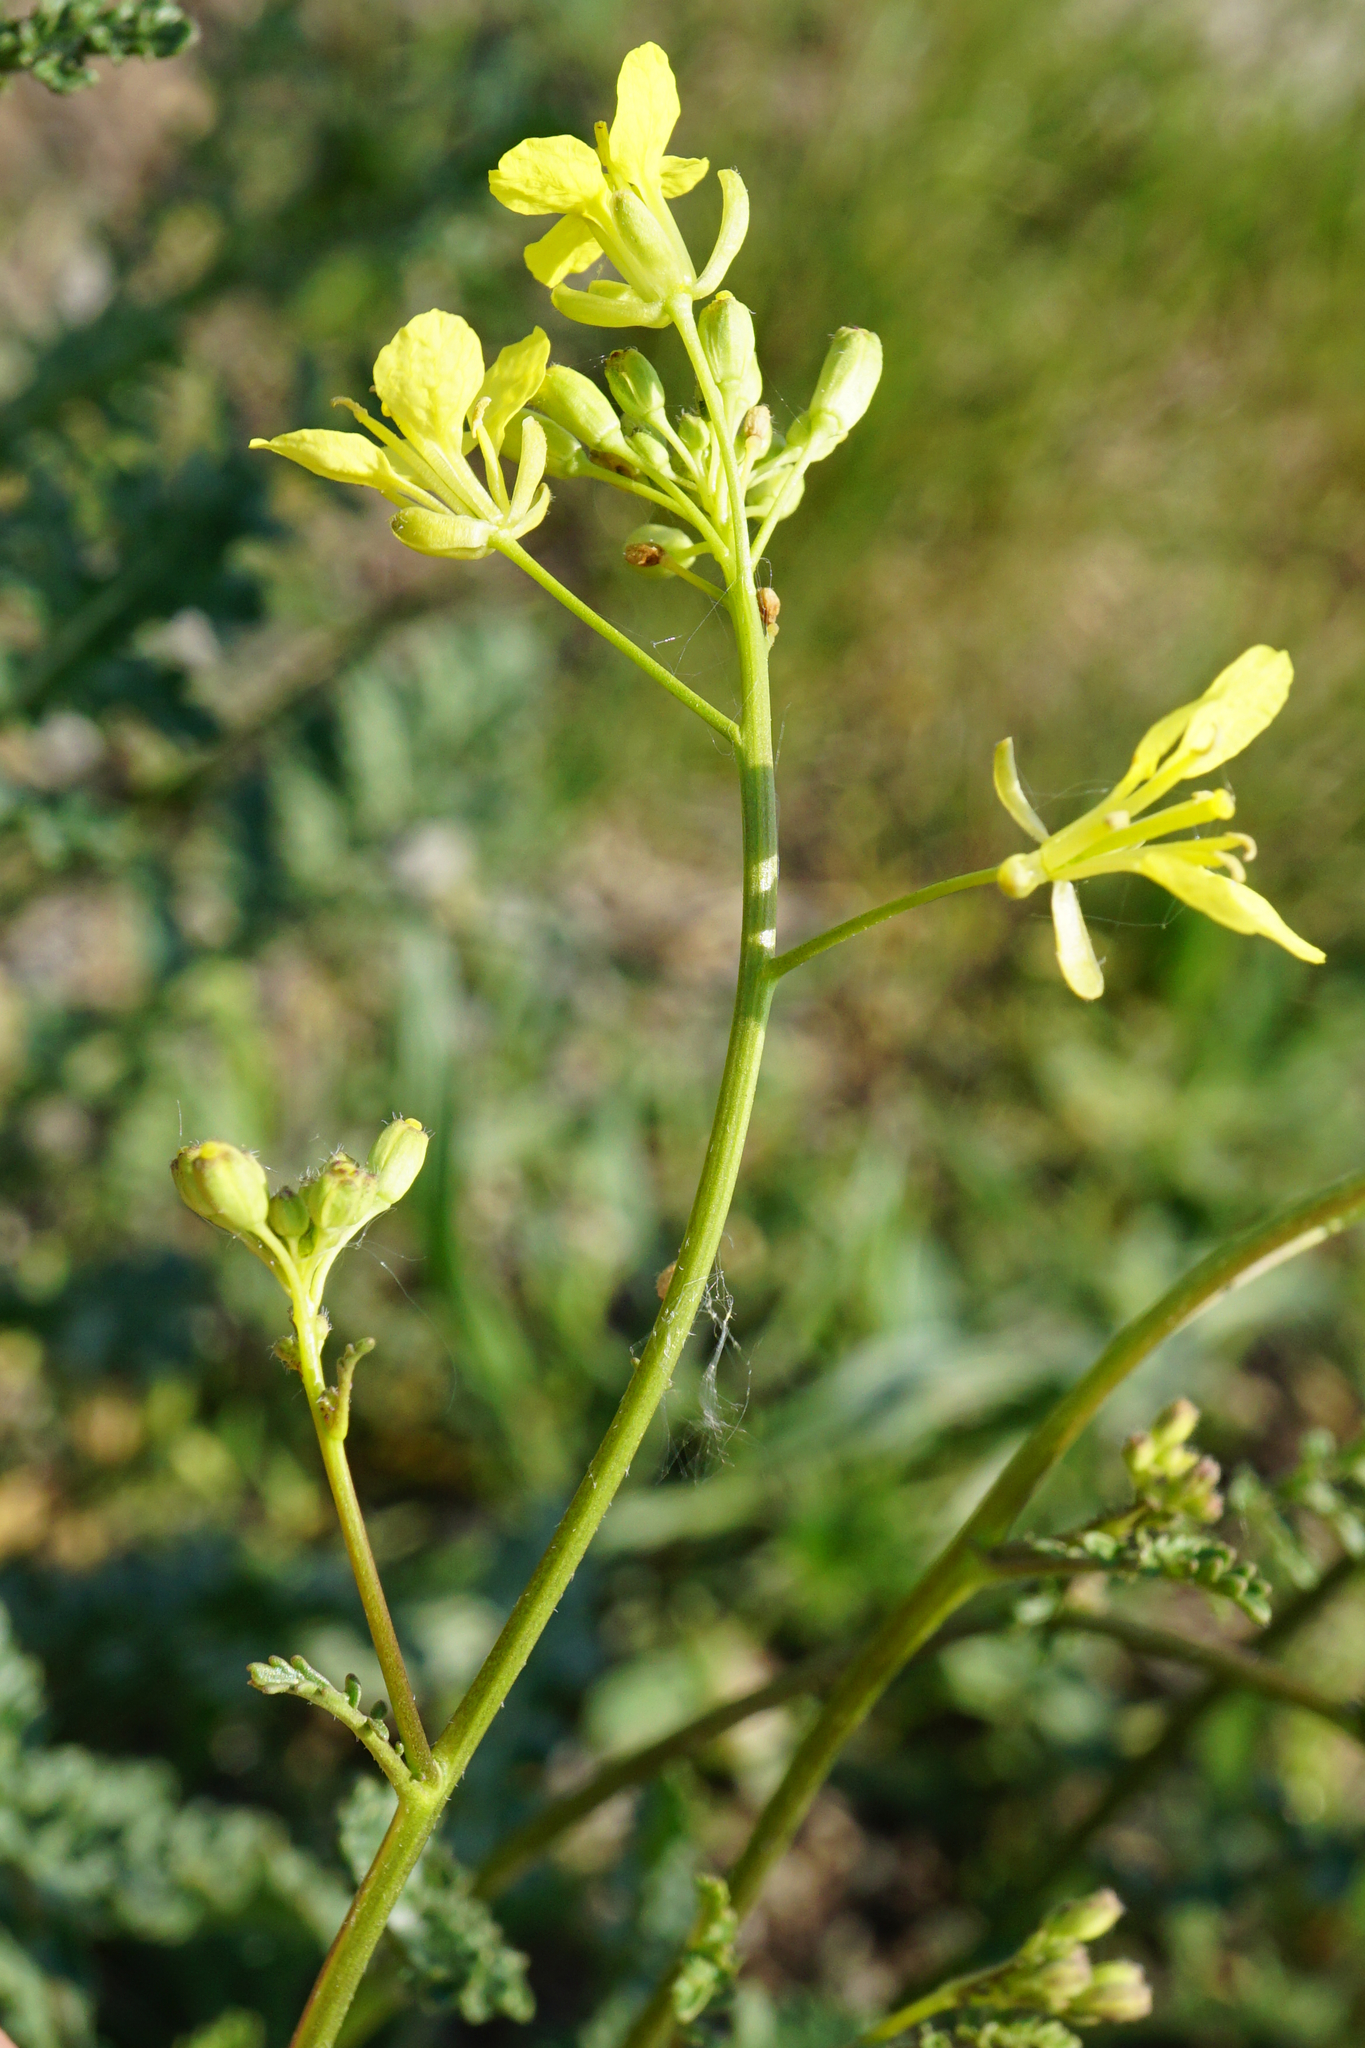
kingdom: Plantae
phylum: Tracheophyta
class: Magnoliopsida
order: Brassicales
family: Brassicaceae
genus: Erucastrum
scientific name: Erucastrum nasturtiifolium
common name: Watercress-leaf rocket
